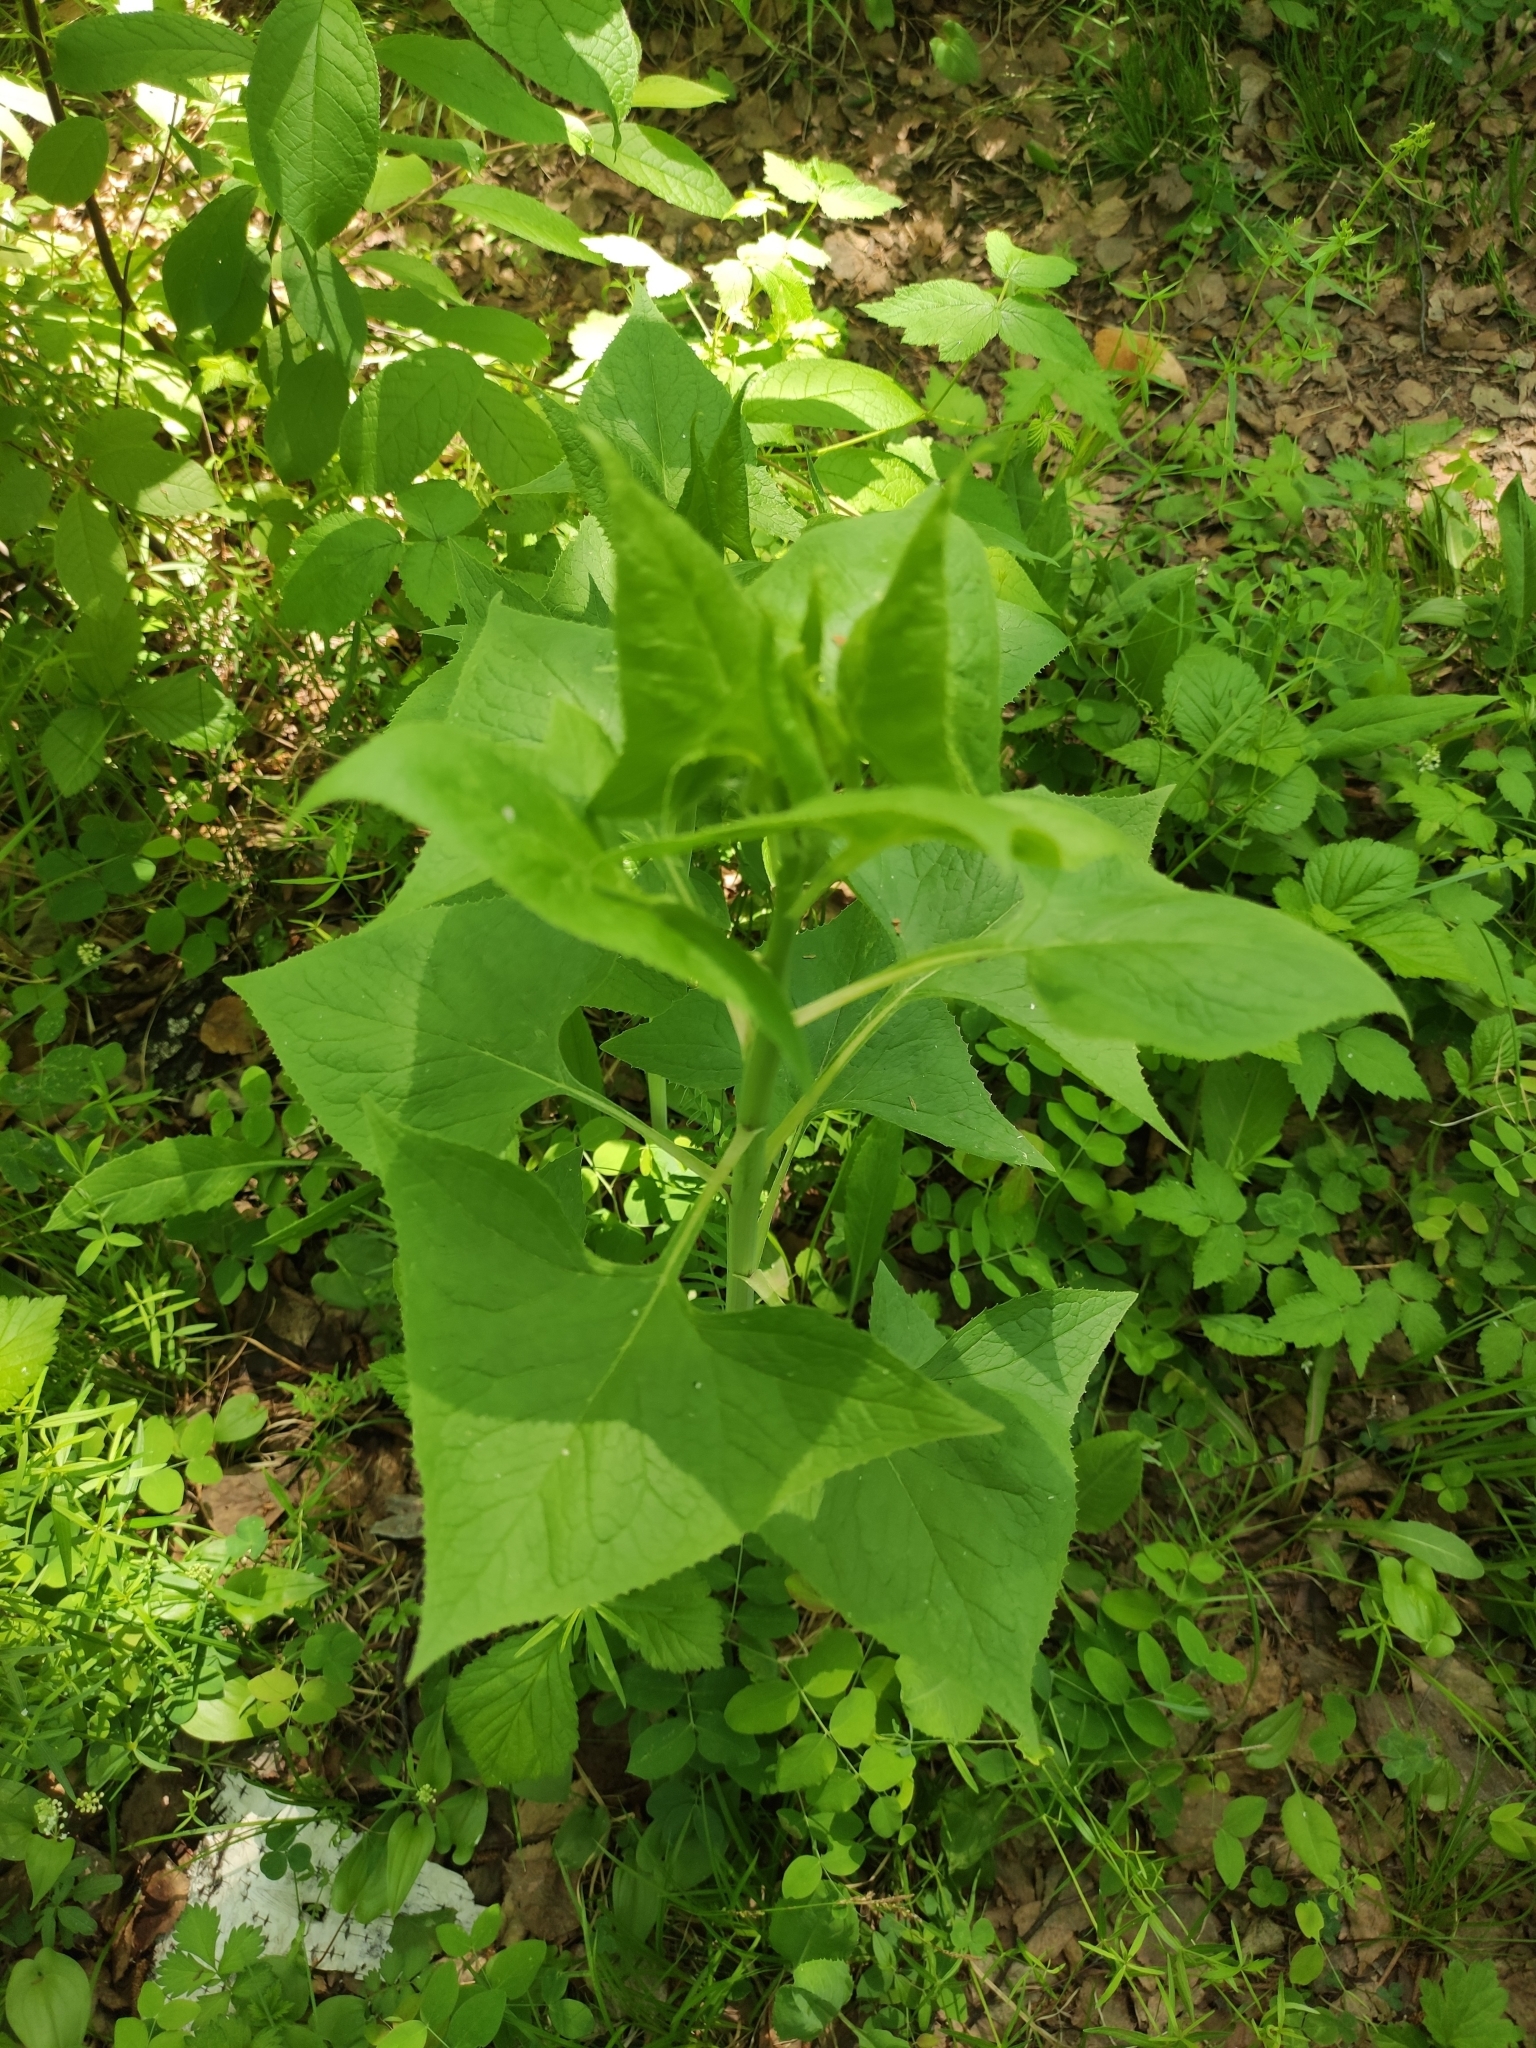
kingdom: Plantae
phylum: Tracheophyta
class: Magnoliopsida
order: Asterales
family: Asteraceae
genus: Parasenecio
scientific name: Parasenecio hastatus
